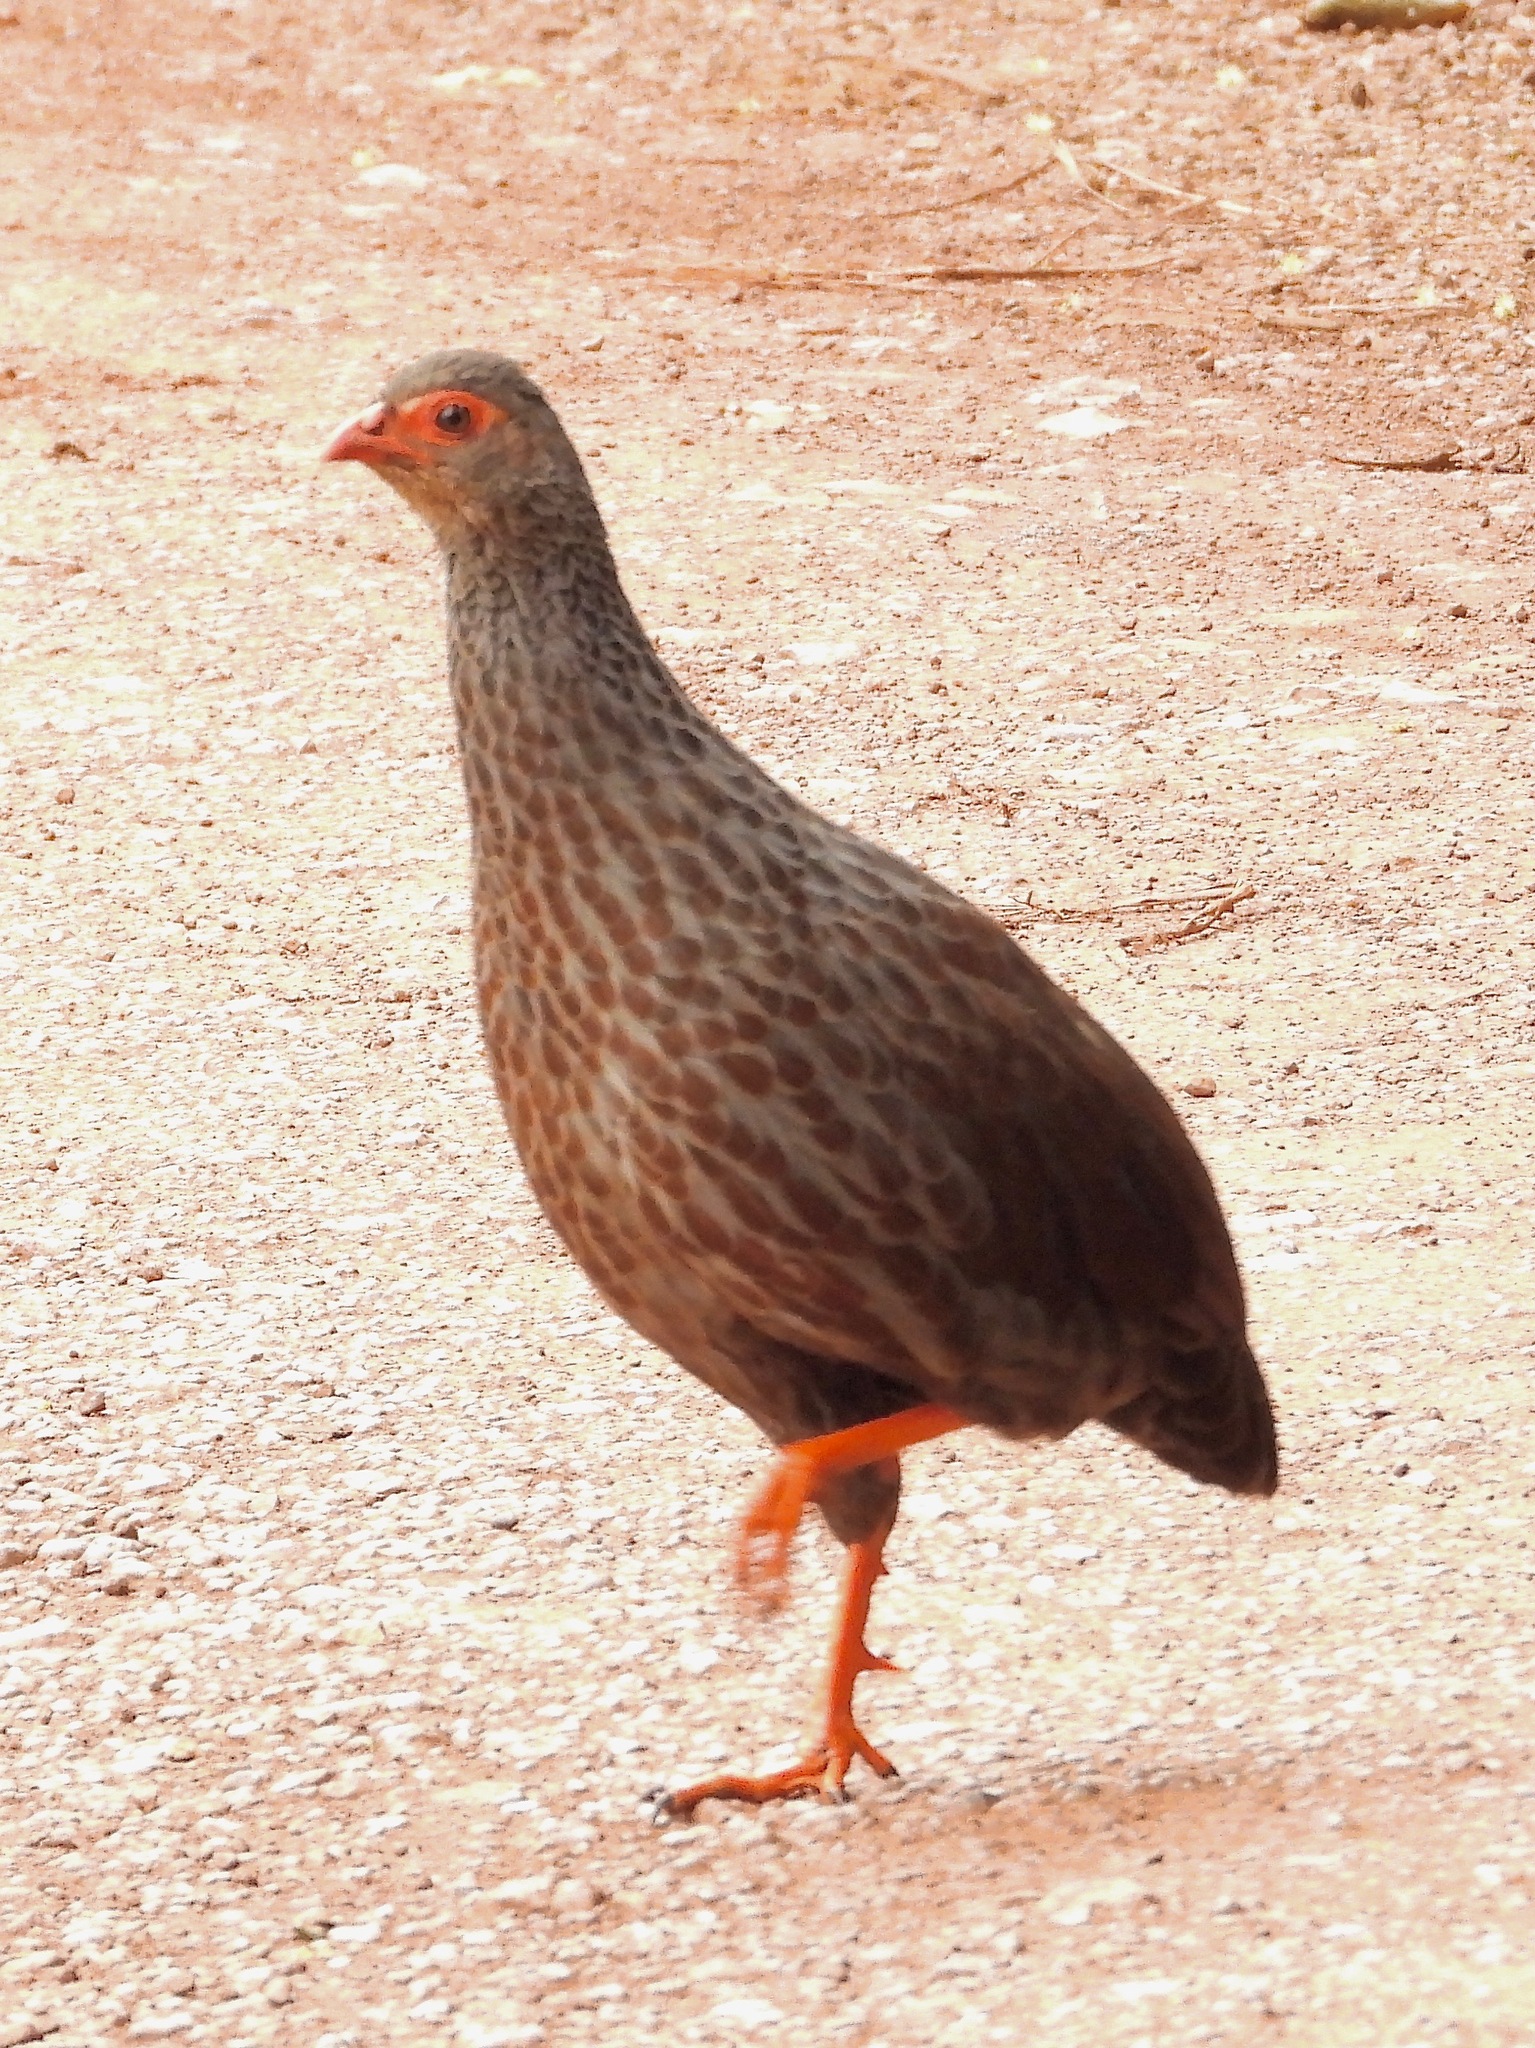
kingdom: Animalia
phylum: Chordata
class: Aves
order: Galliformes
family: Phasianidae
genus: Pternistis
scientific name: Pternistis nobilis
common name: Handsome francolin
